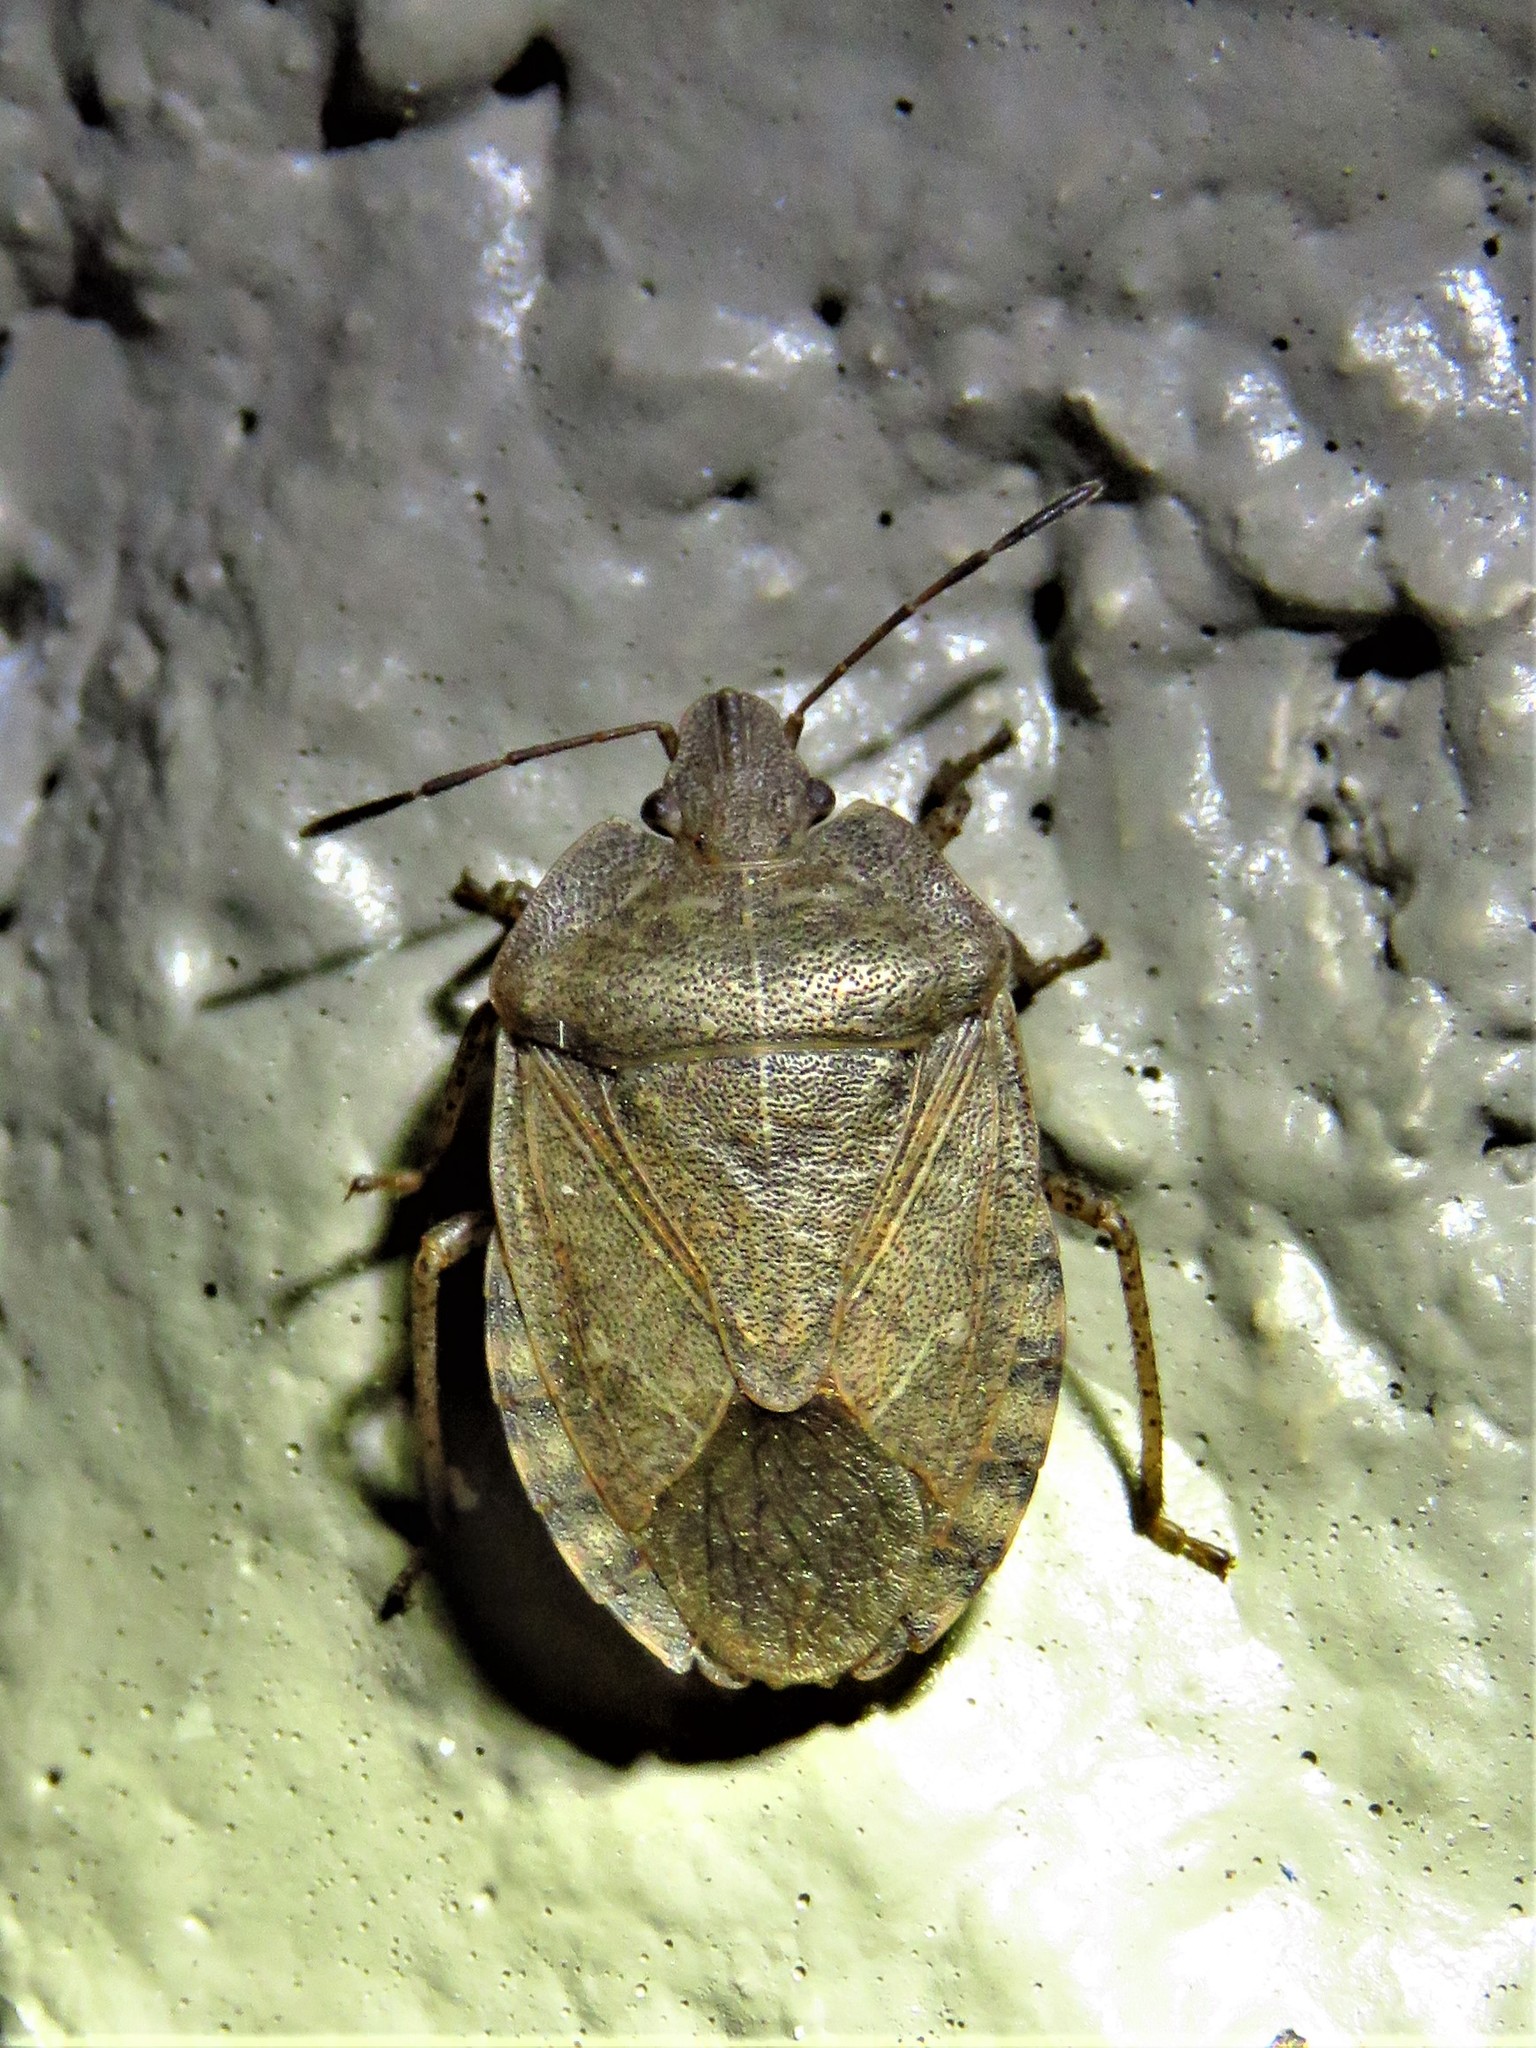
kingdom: Animalia
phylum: Arthropoda
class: Insecta
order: Hemiptera
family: Pentatomidae
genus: Menecles
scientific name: Menecles insertus
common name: Elf shoe stink bug
